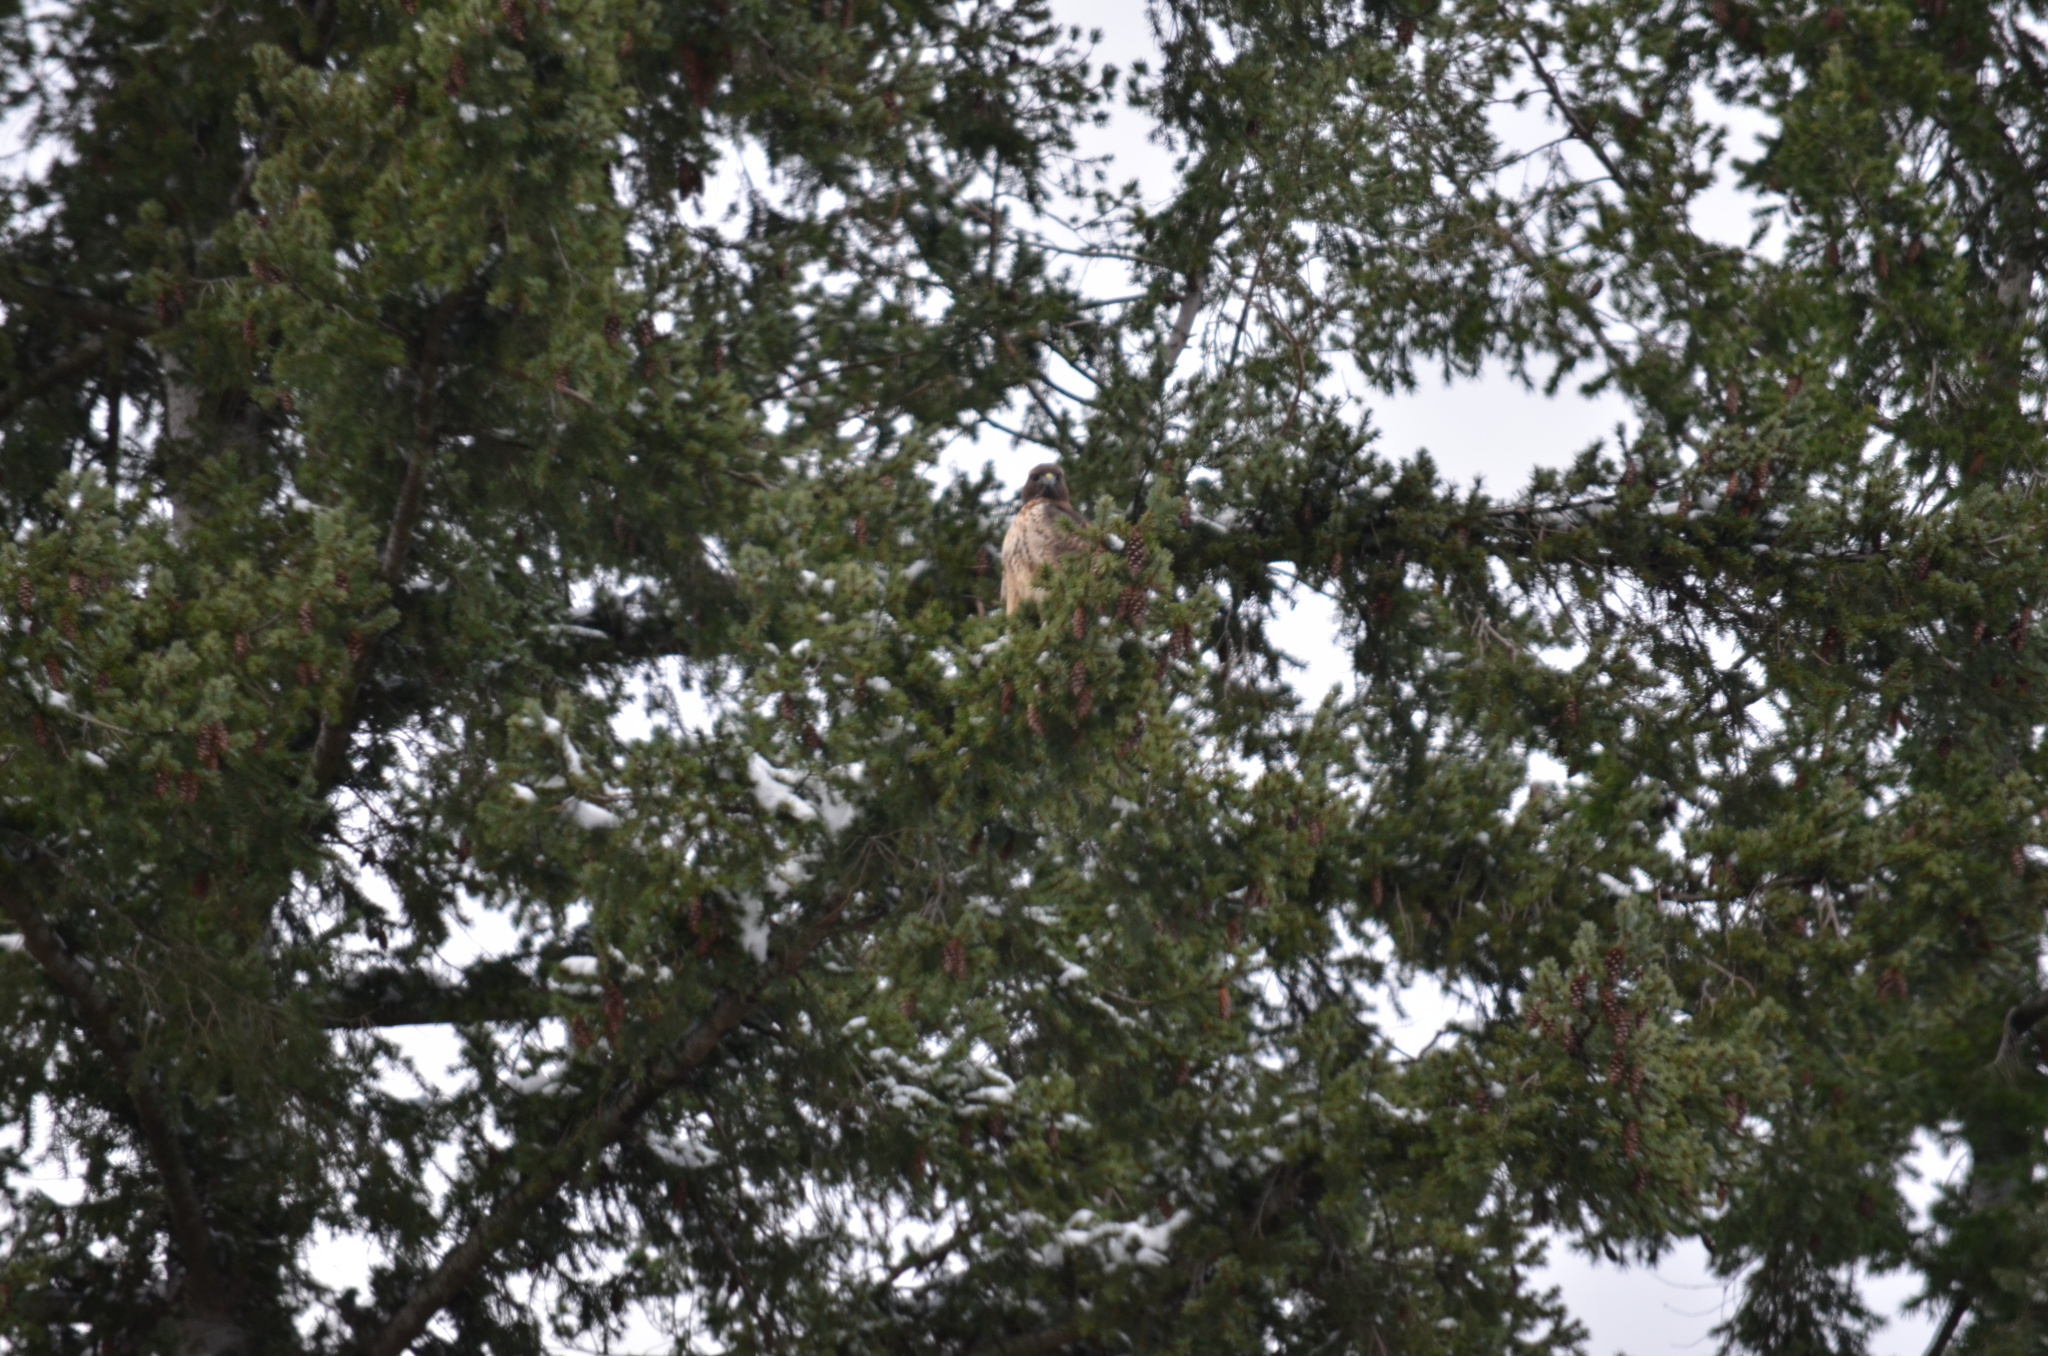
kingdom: Animalia
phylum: Chordata
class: Aves
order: Accipitriformes
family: Accipitridae
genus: Buteo
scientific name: Buteo jamaicensis
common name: Red-tailed hawk
